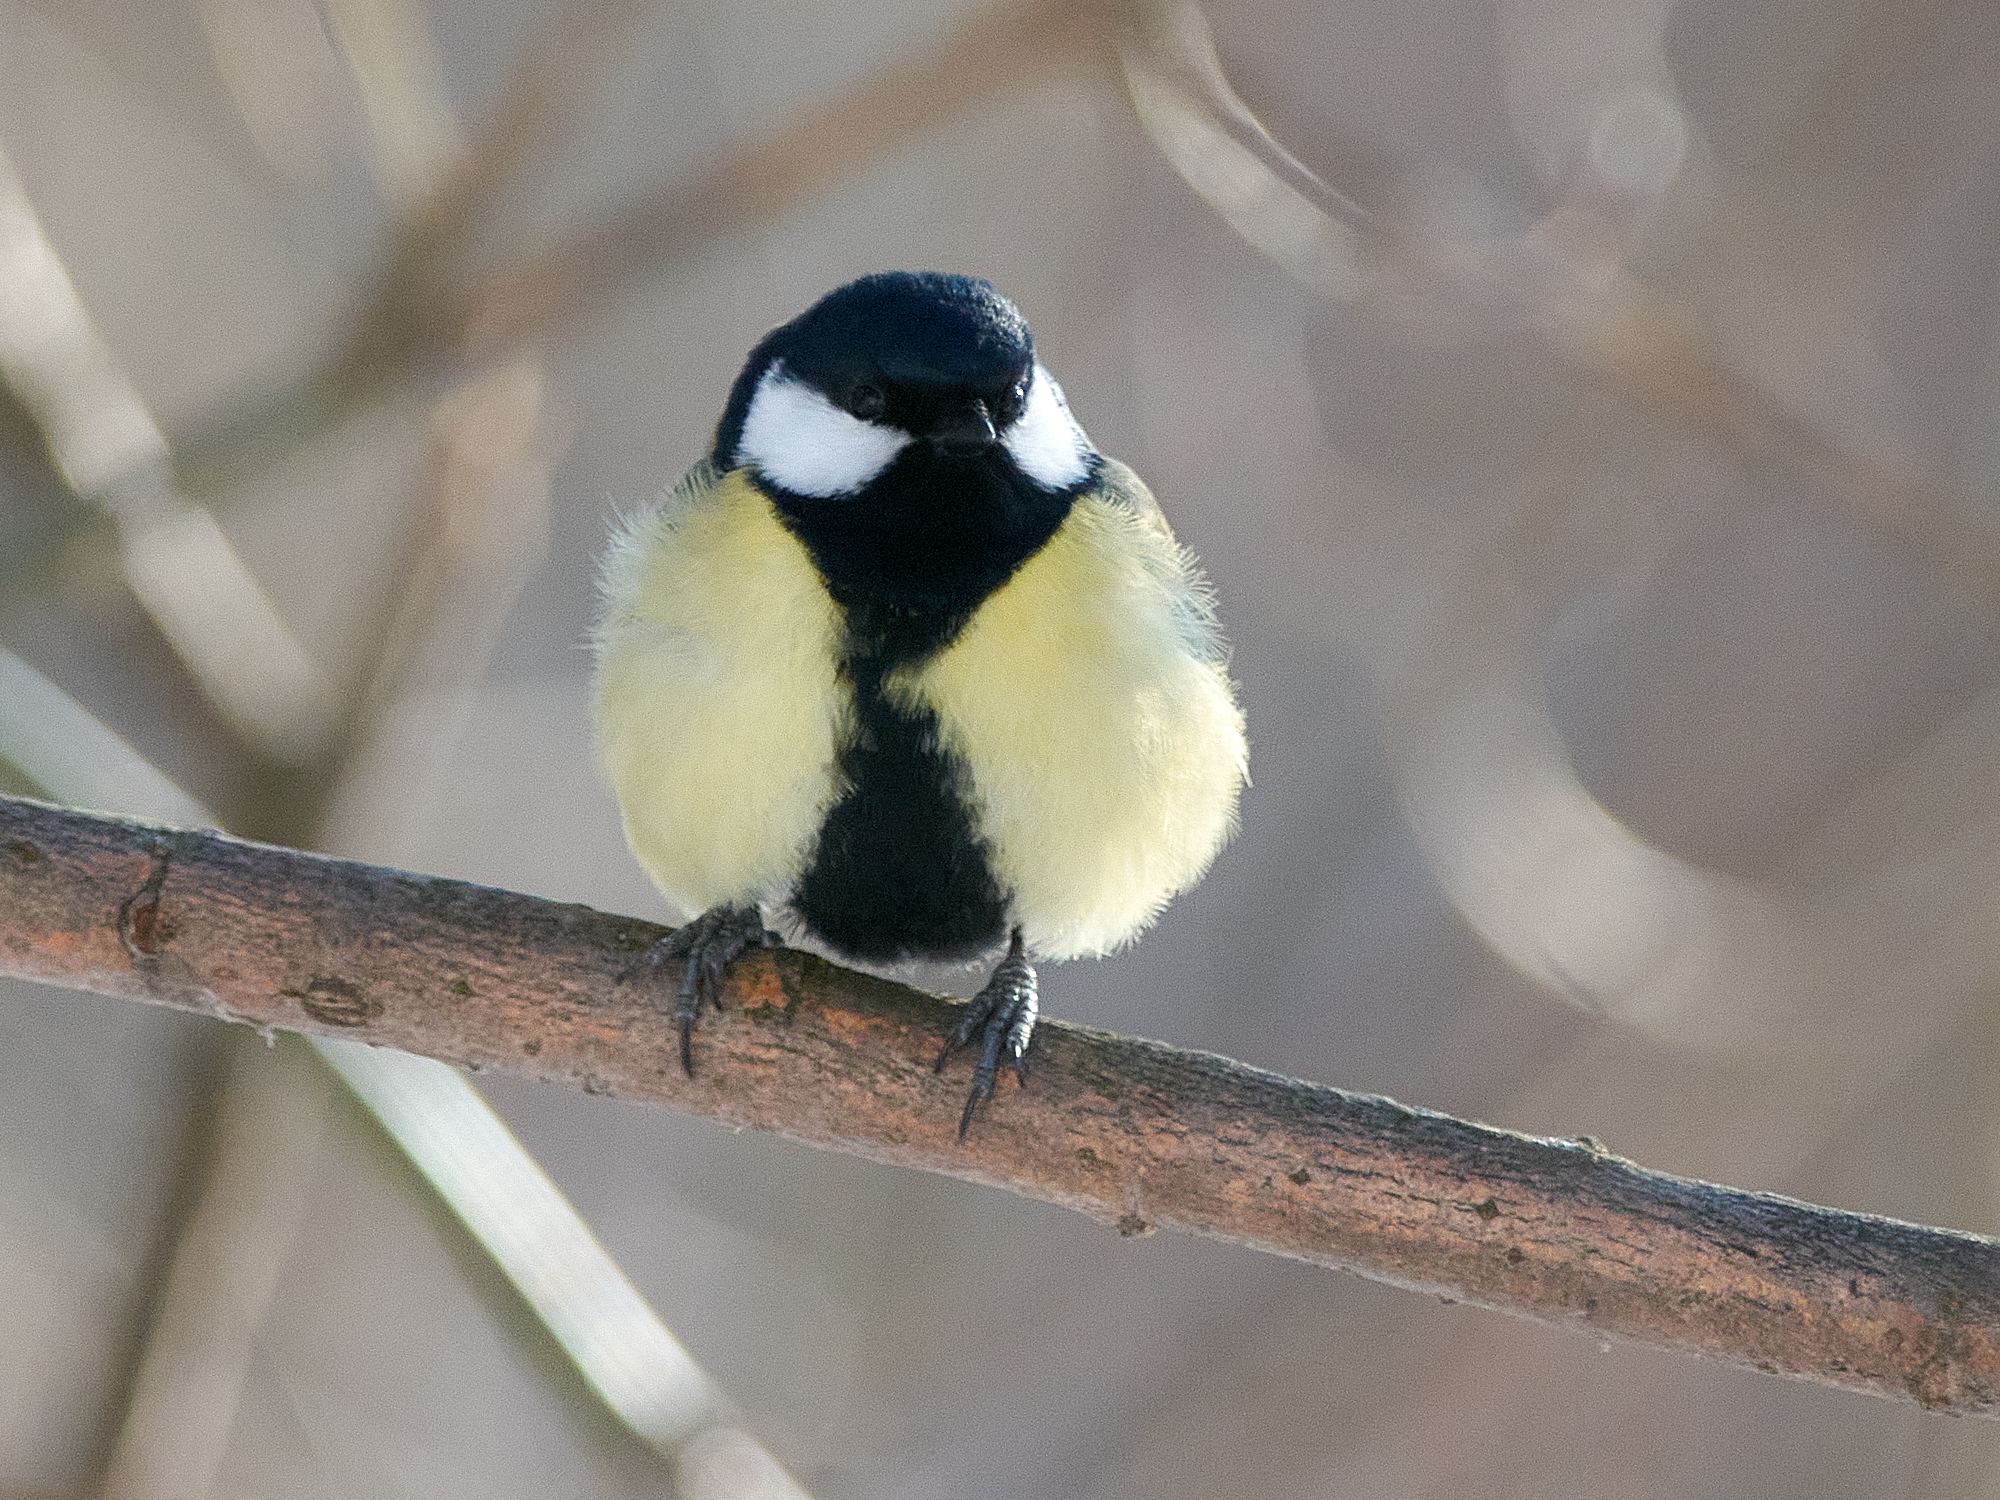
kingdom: Animalia
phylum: Chordata
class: Aves
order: Passeriformes
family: Paridae
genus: Parus
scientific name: Parus major
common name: Great tit
